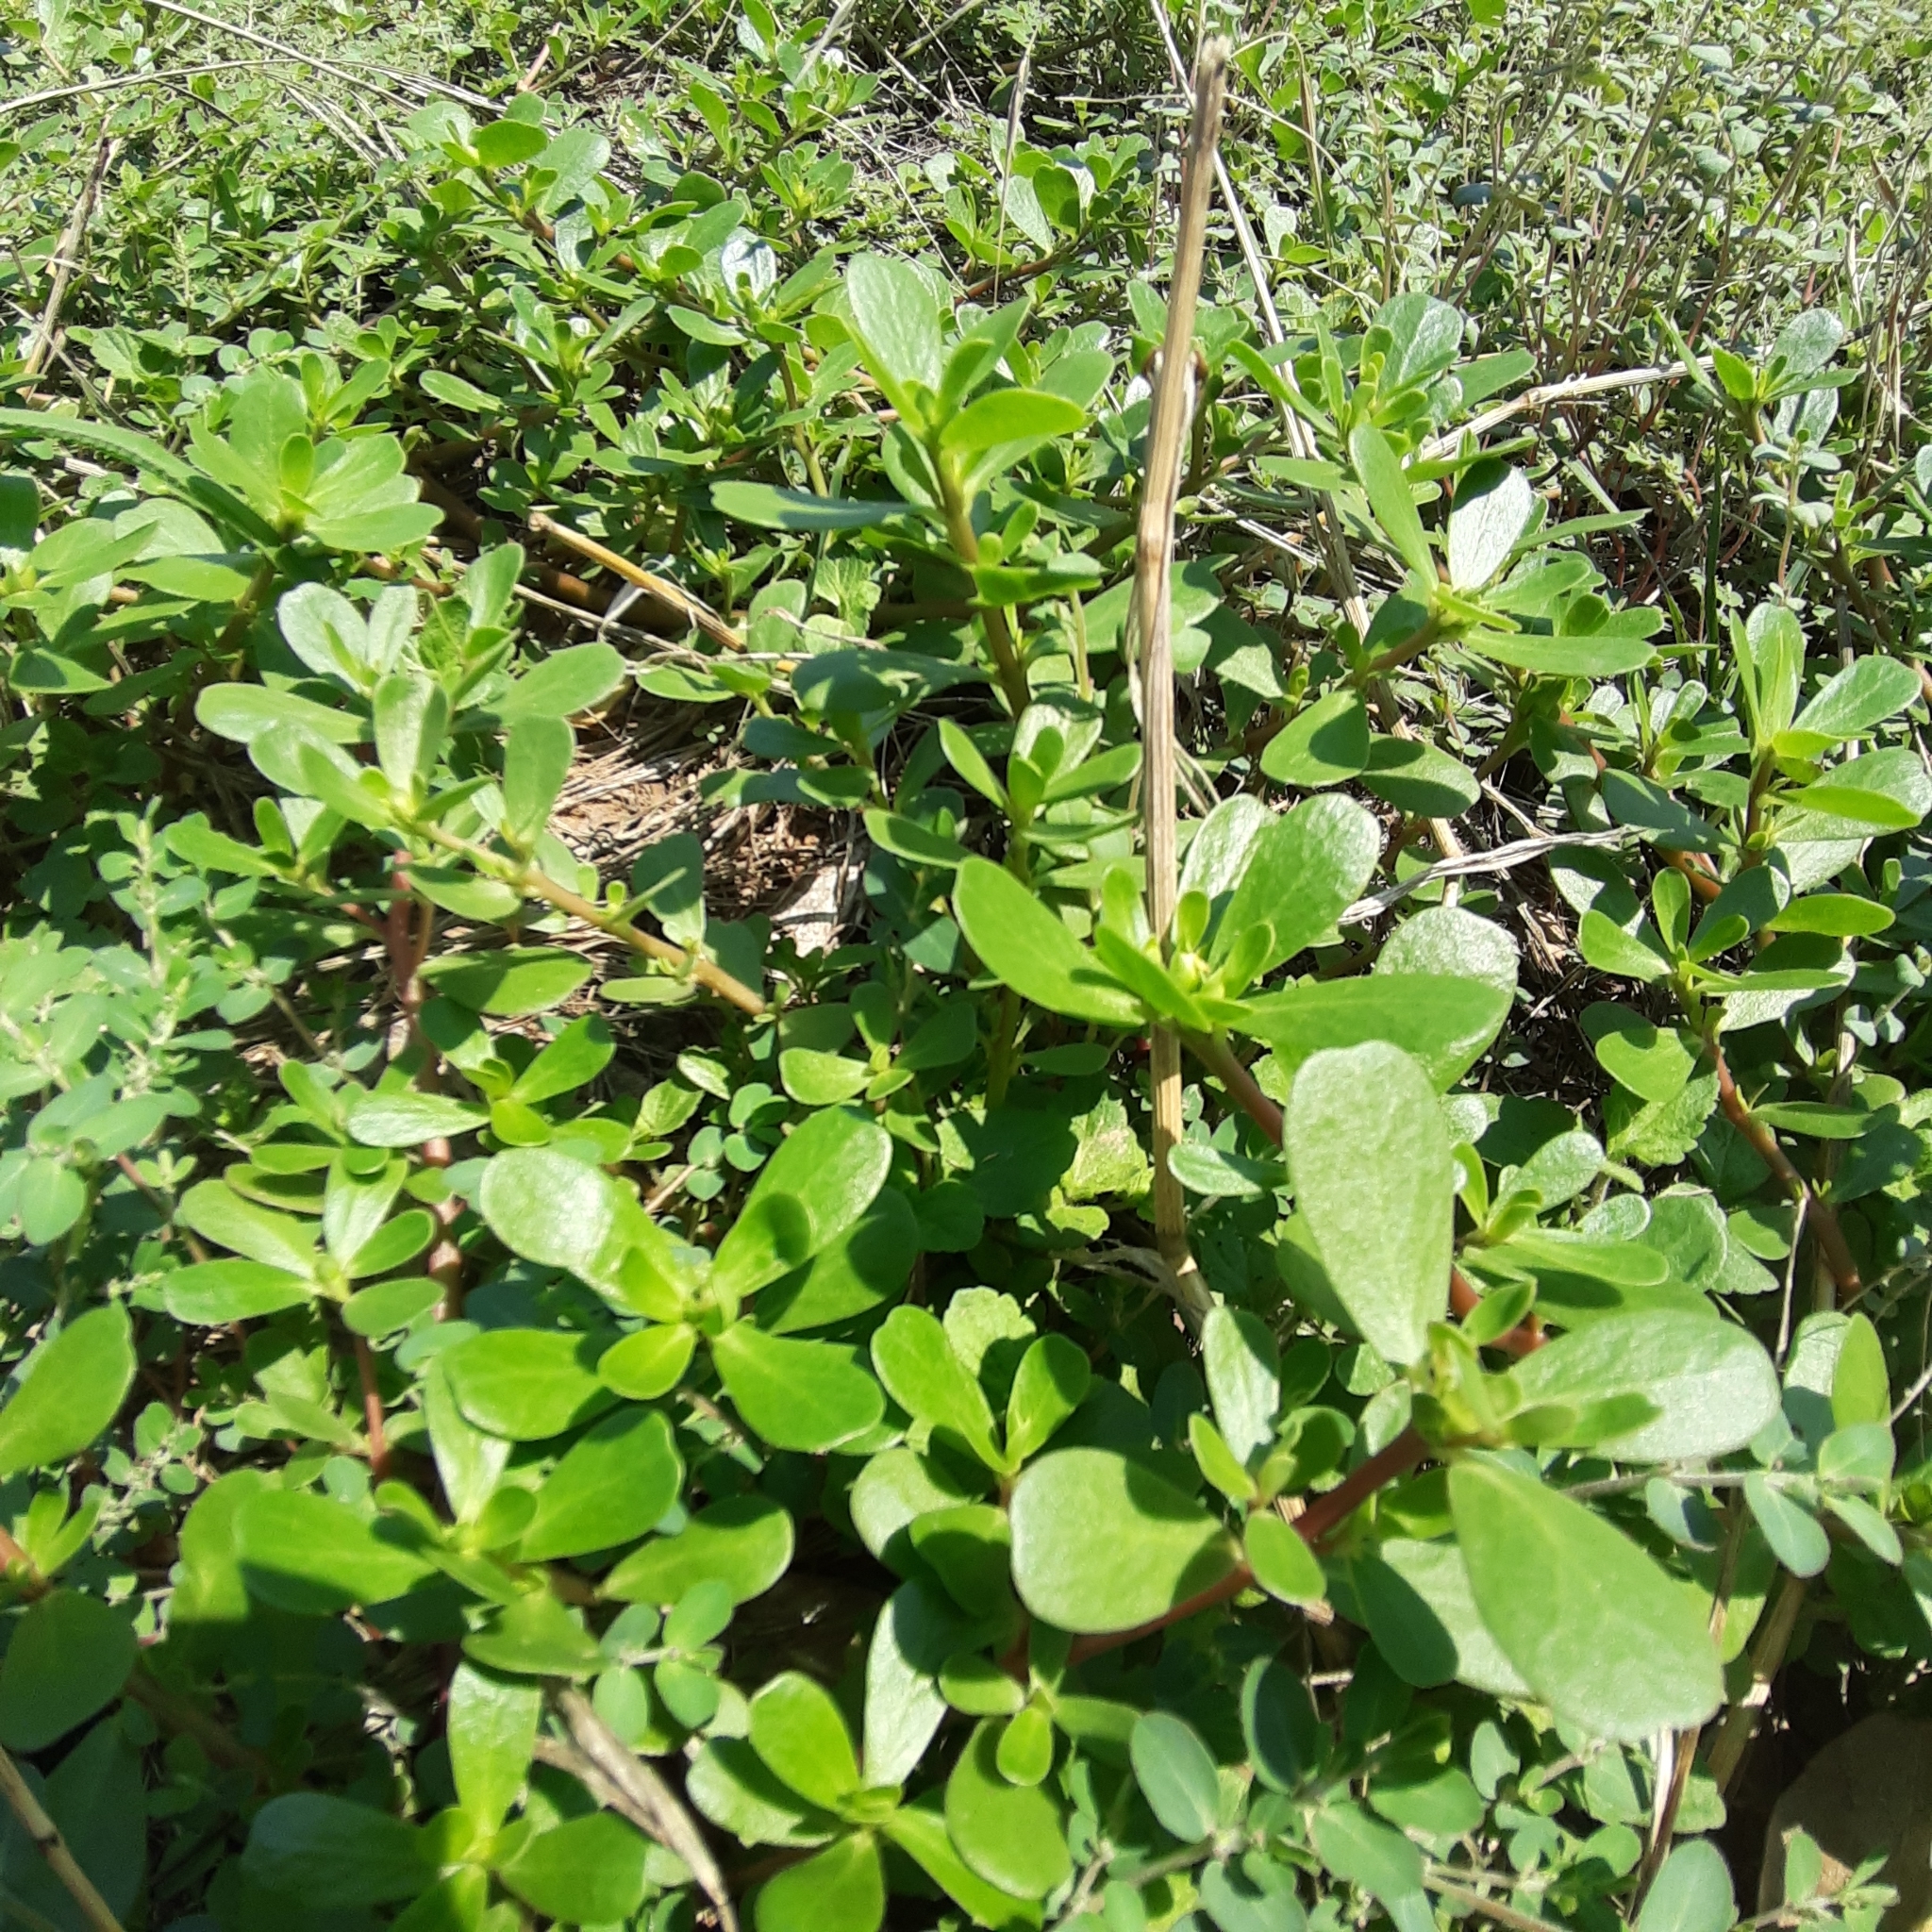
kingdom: Plantae
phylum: Tracheophyta
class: Magnoliopsida
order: Caryophyllales
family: Portulacaceae
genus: Portulaca
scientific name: Portulaca oleracea
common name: Common purslane
